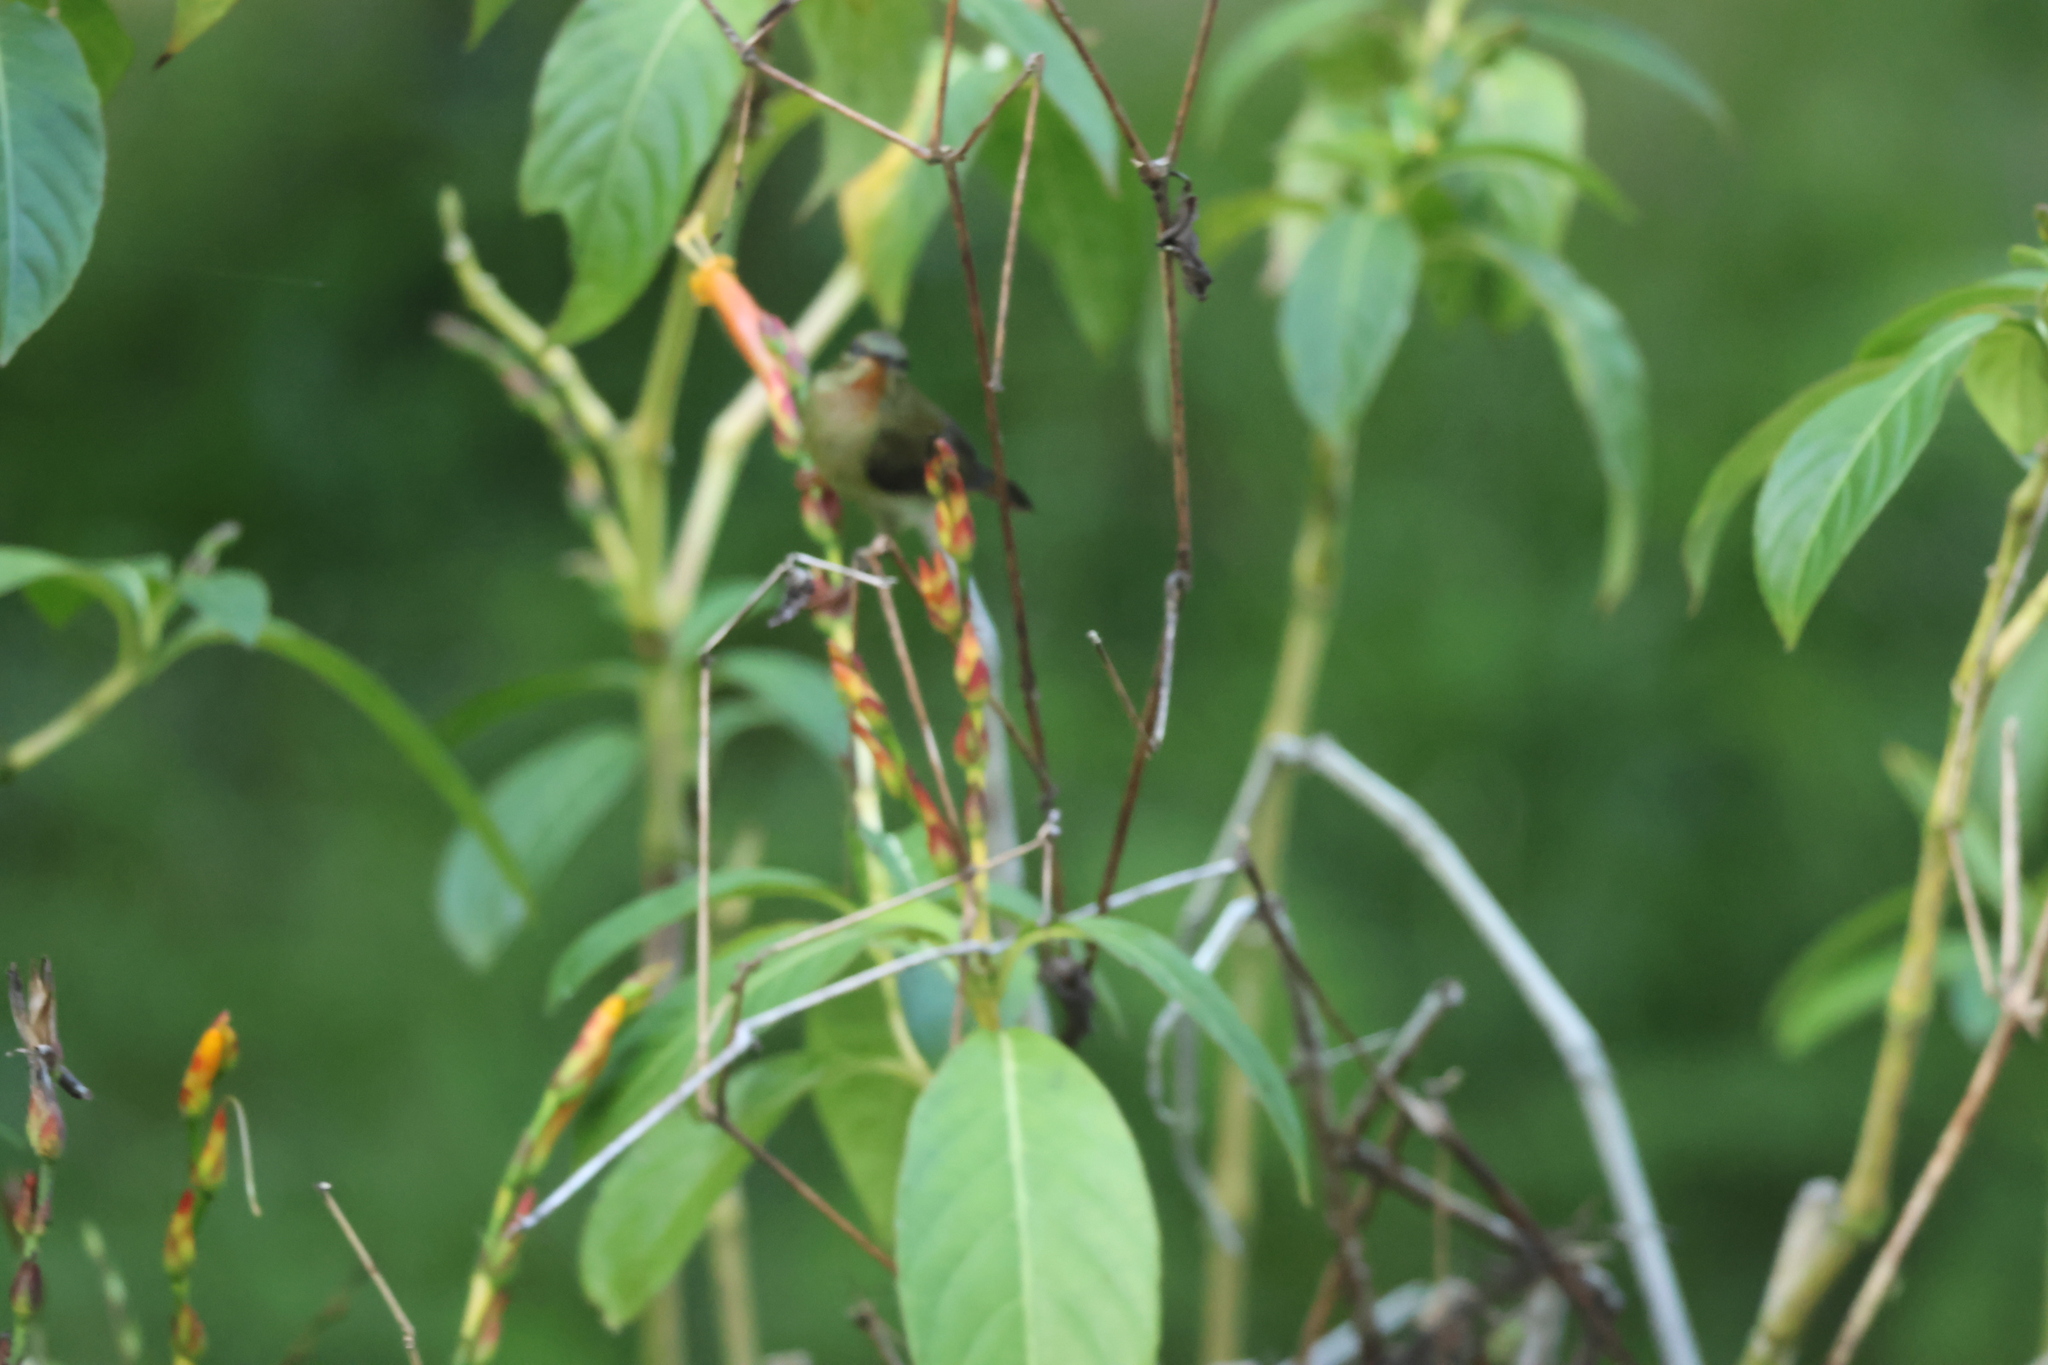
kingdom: Animalia
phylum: Chordata
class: Aves
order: Passeriformes
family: Nectariniidae
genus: Aethopyga
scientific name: Aethopyga siparaja
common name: Crimson sunbird
